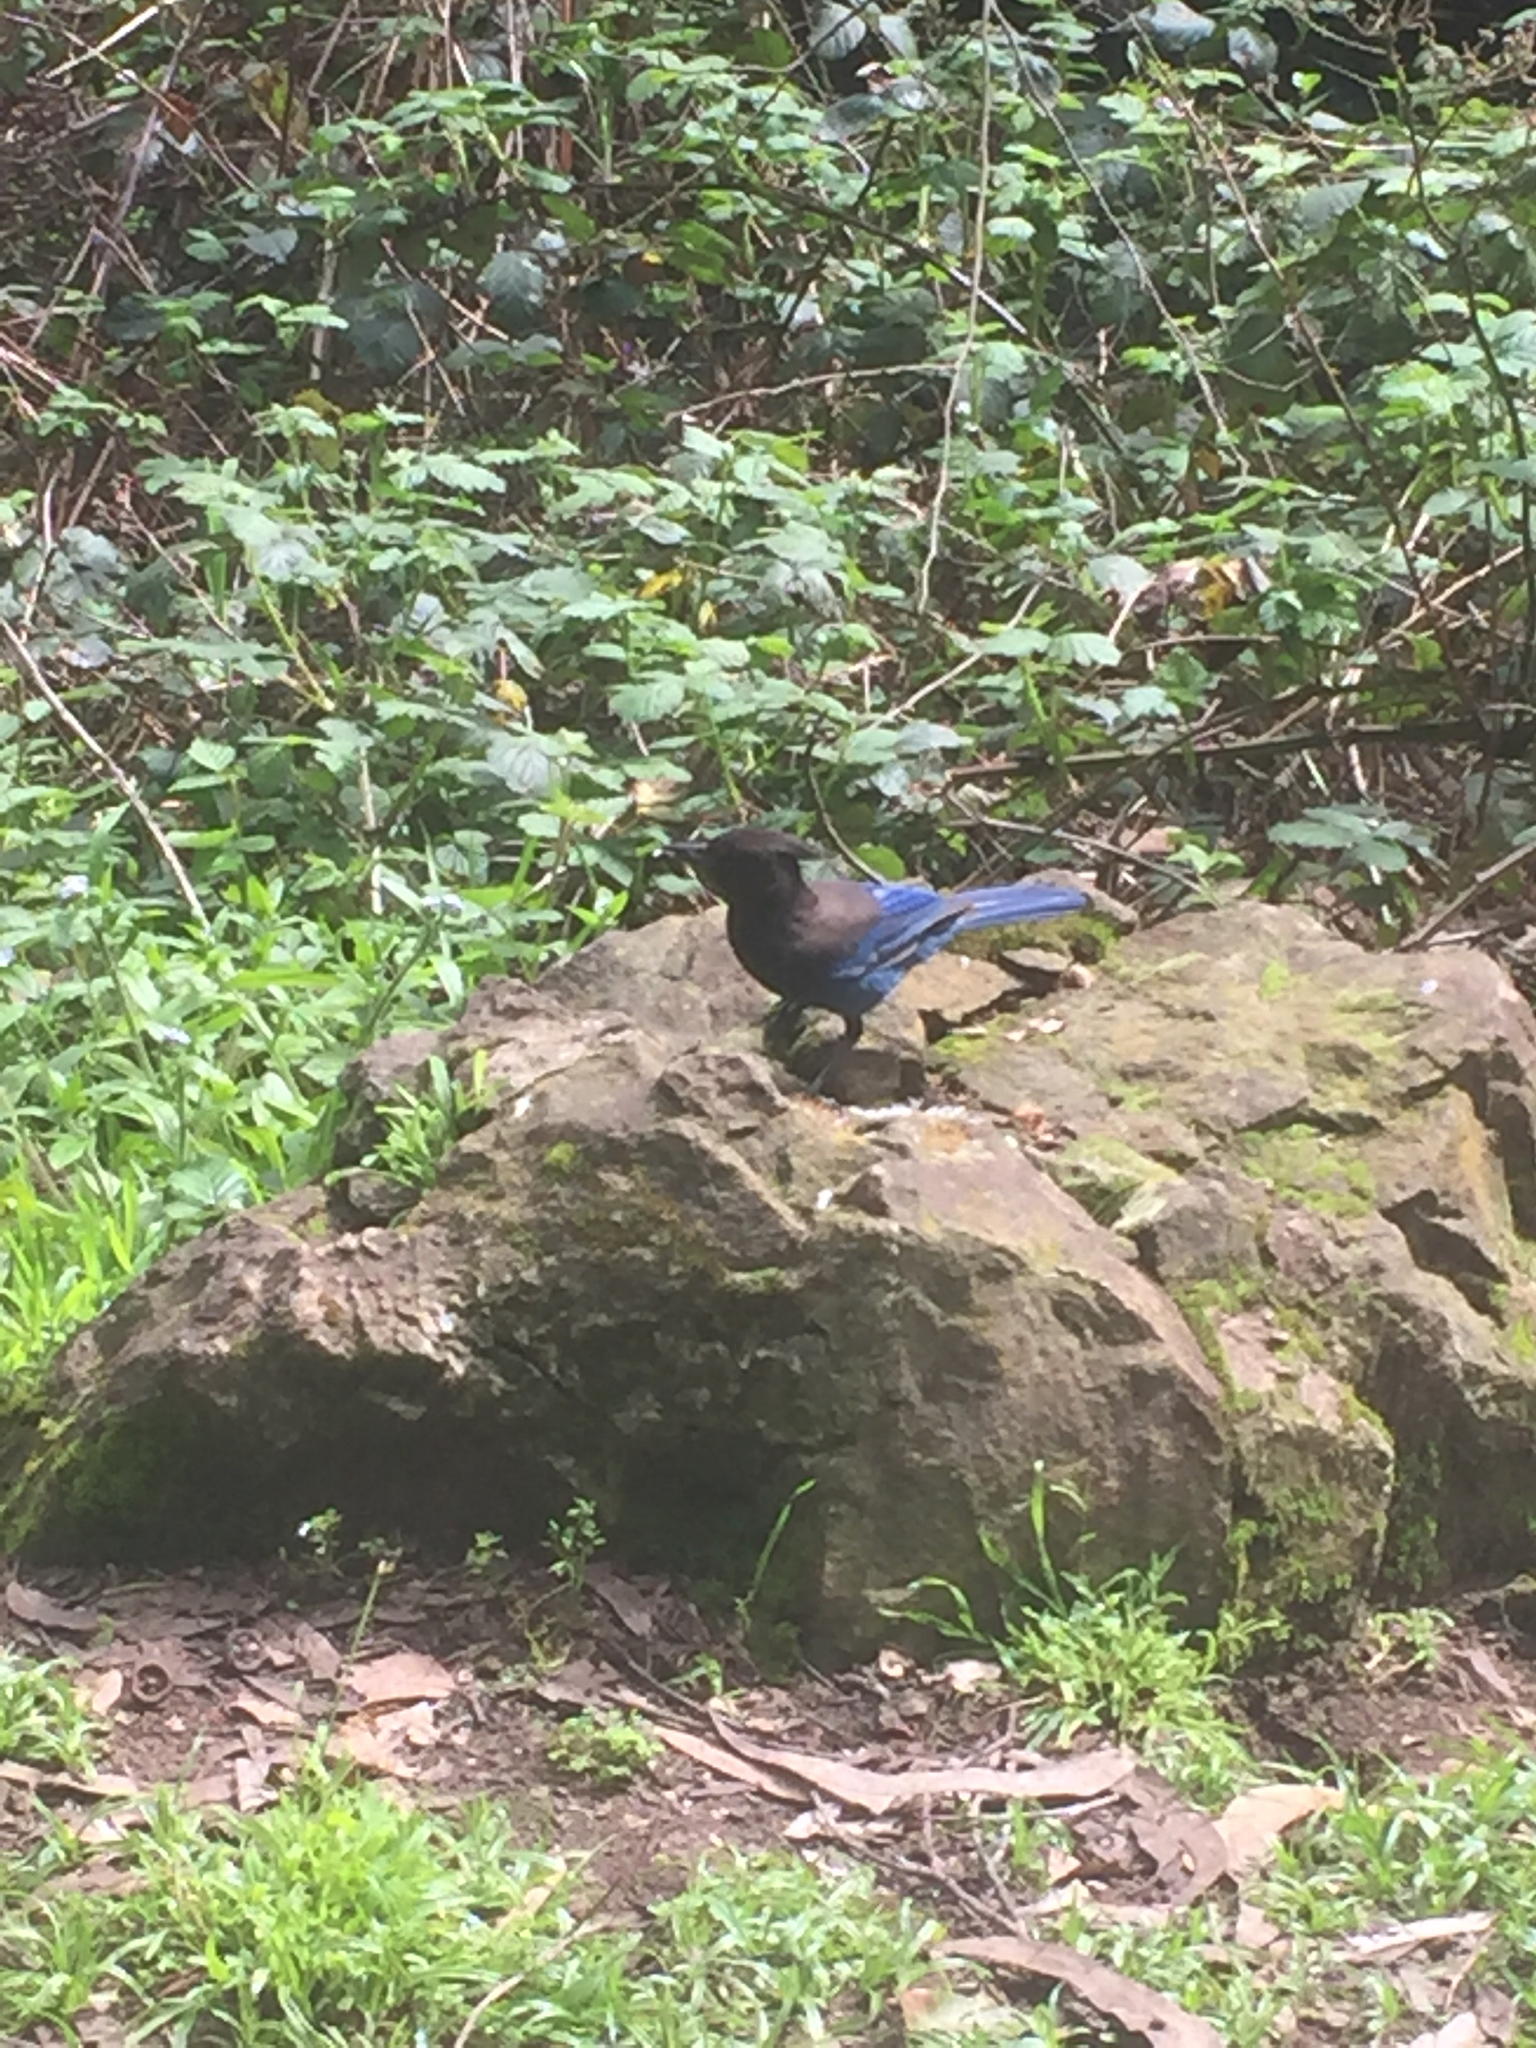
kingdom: Animalia
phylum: Chordata
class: Aves
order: Passeriformes
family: Corvidae
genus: Cyanocitta
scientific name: Cyanocitta stelleri
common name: Steller's jay
